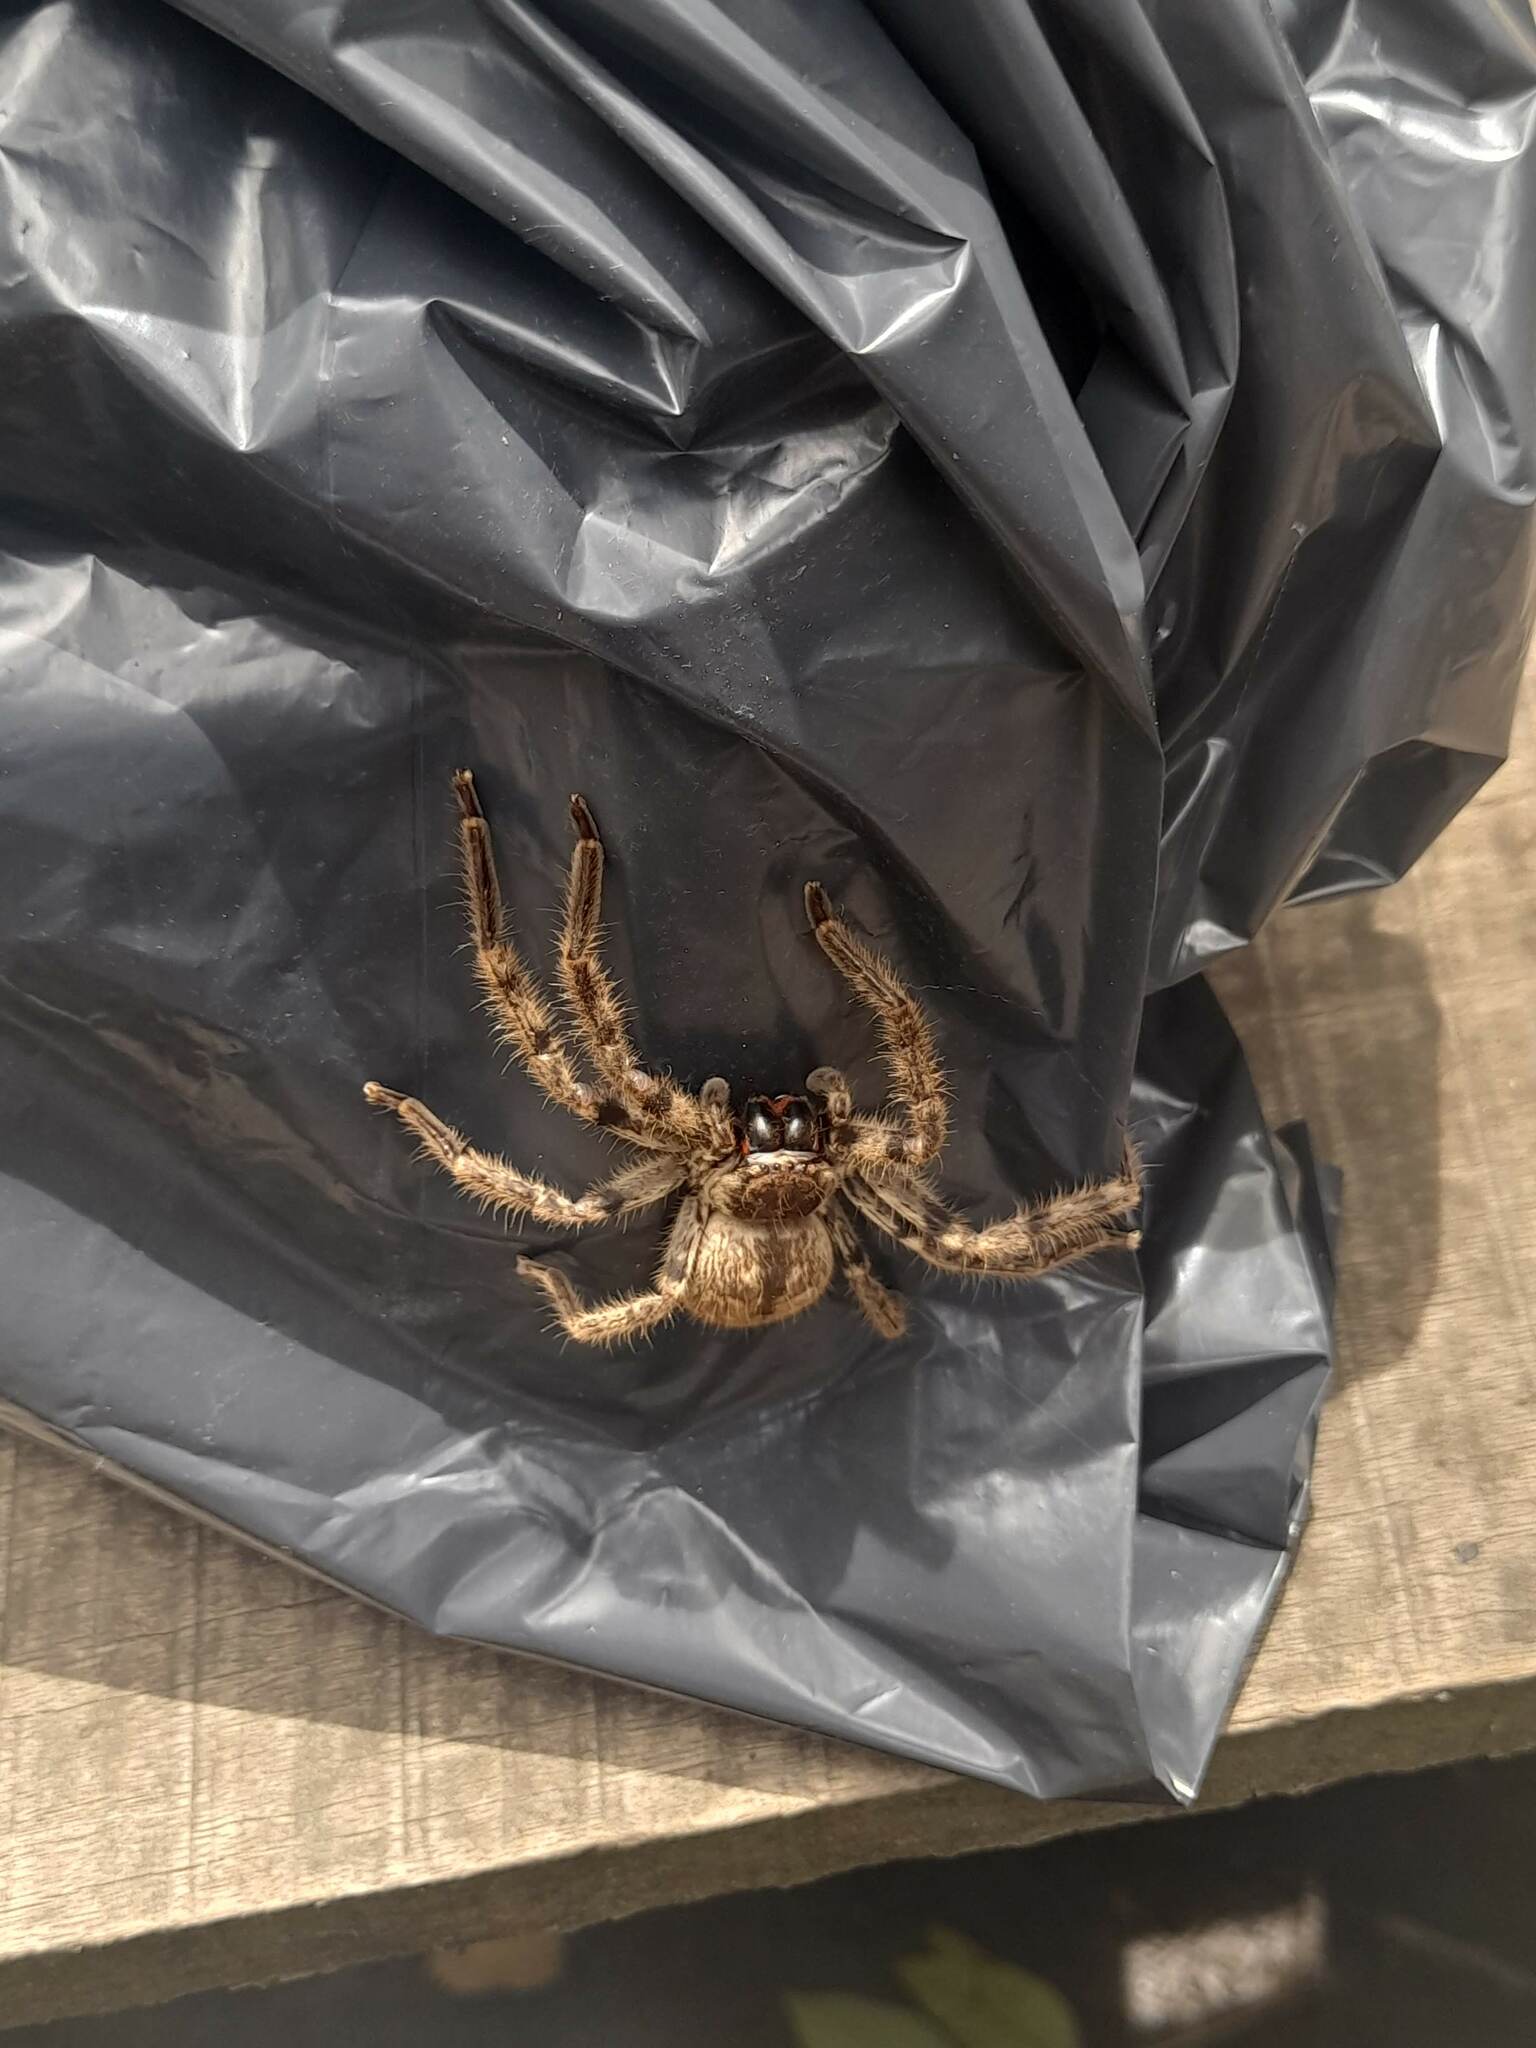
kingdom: Animalia
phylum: Arthropoda
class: Arachnida
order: Araneae
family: Sparassidae
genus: Polybetes
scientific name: Polybetes pythagoricus
